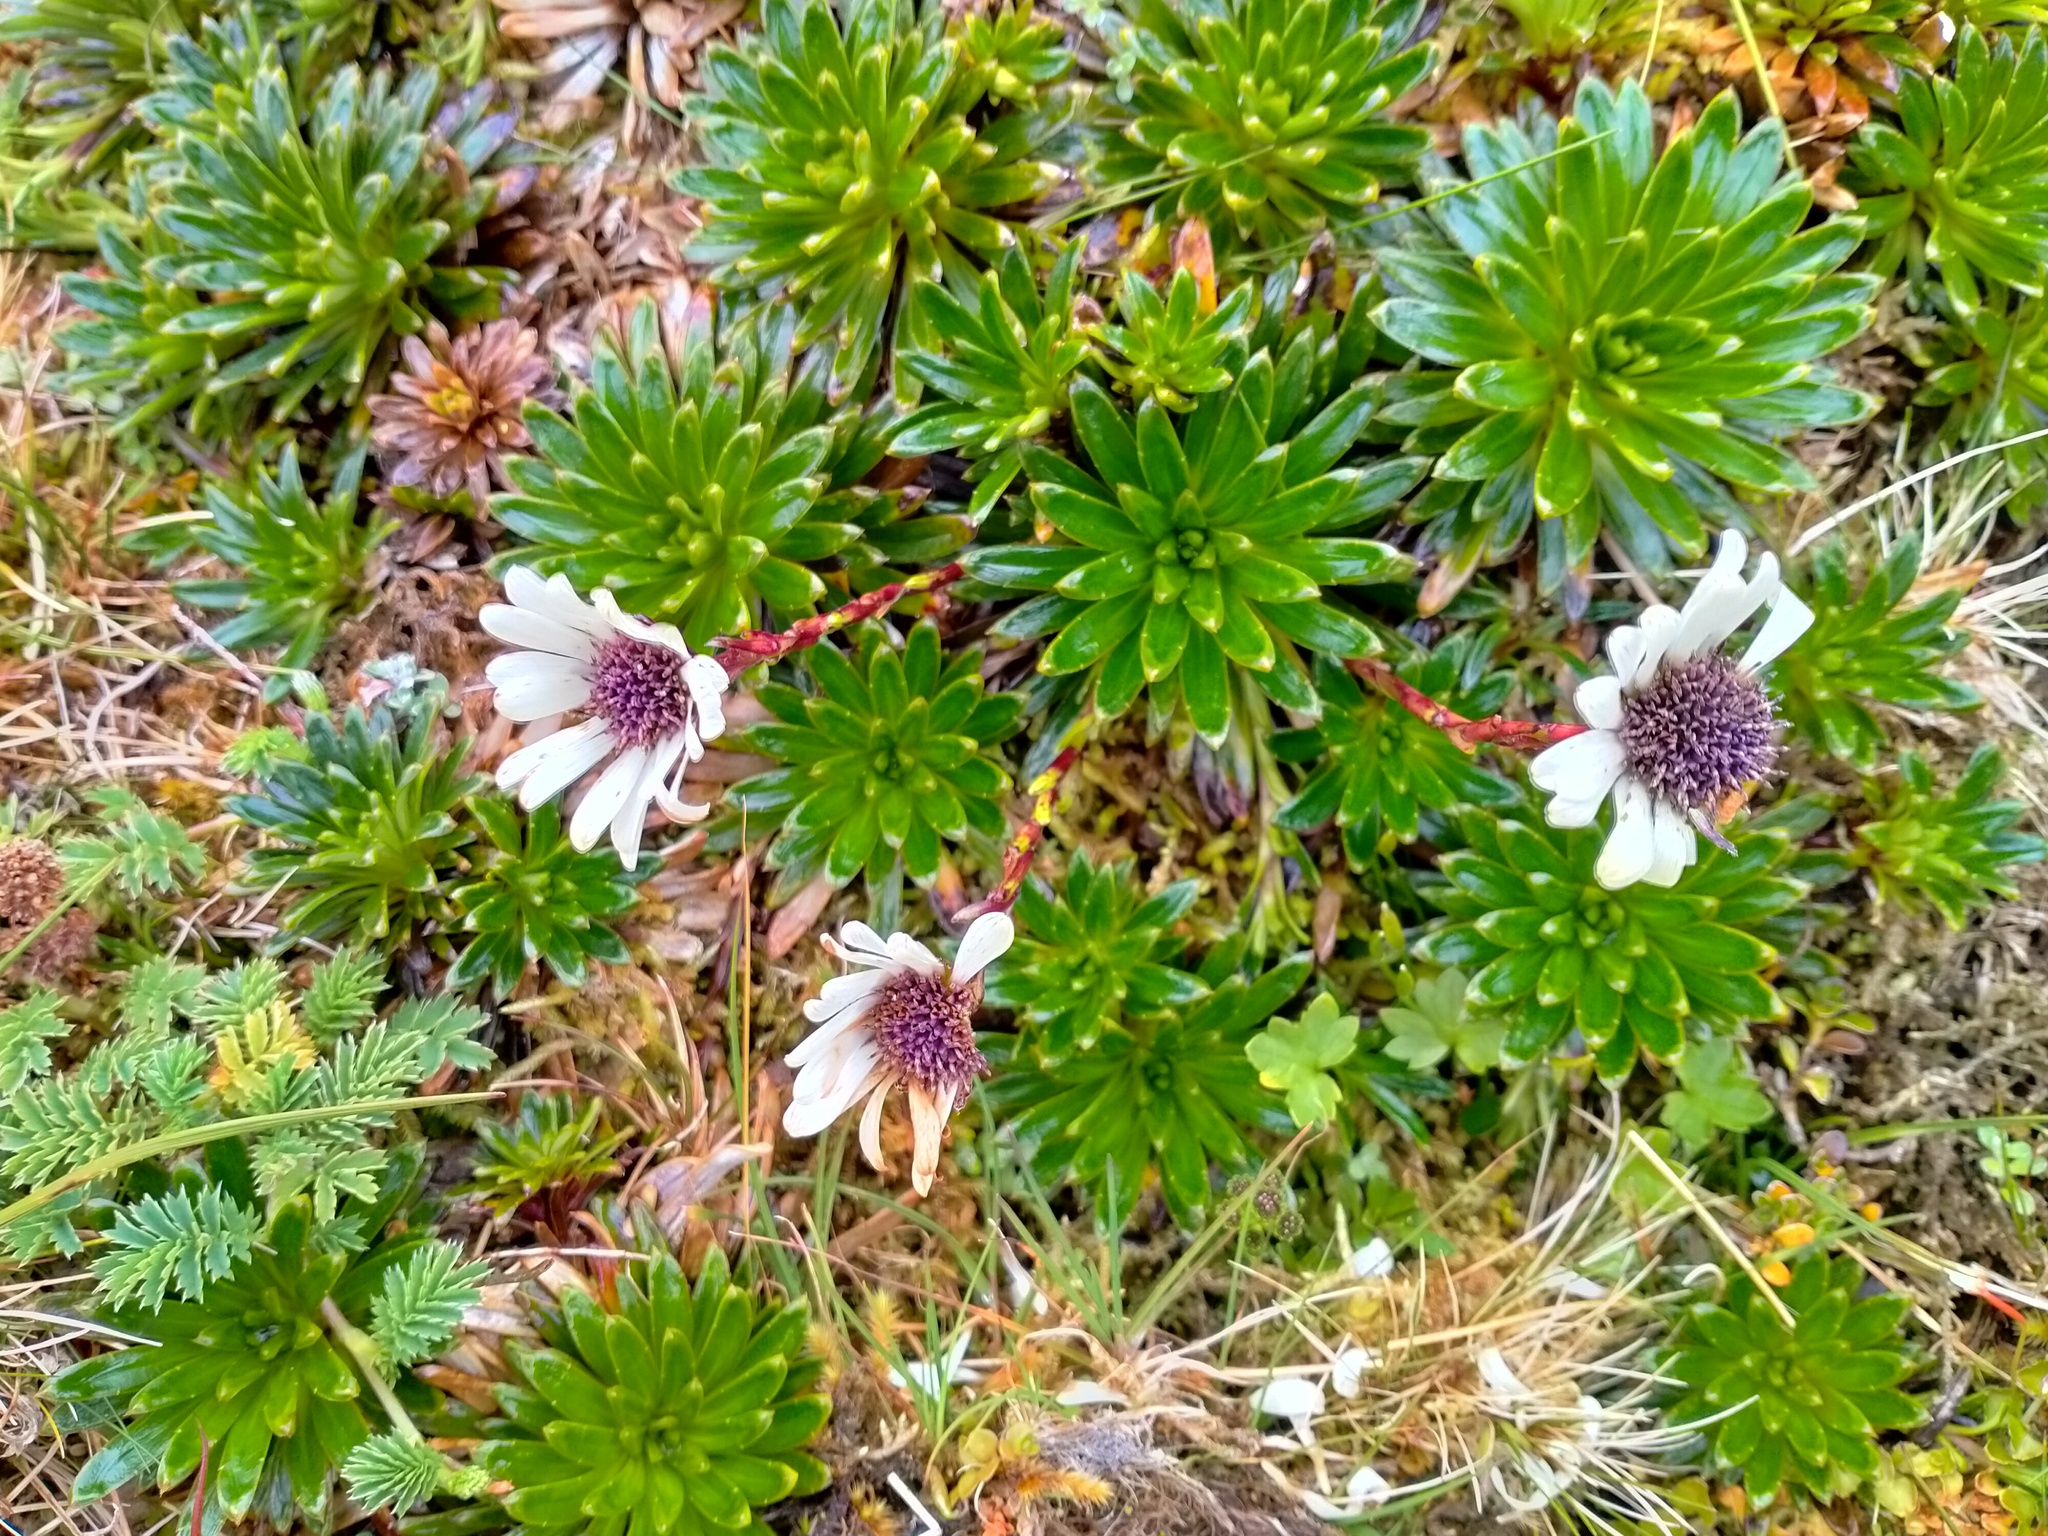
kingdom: Plantae
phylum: Tracheophyta
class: Magnoliopsida
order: Asterales
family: Asteraceae
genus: Damnamenia
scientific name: Damnamenia vernicosa
